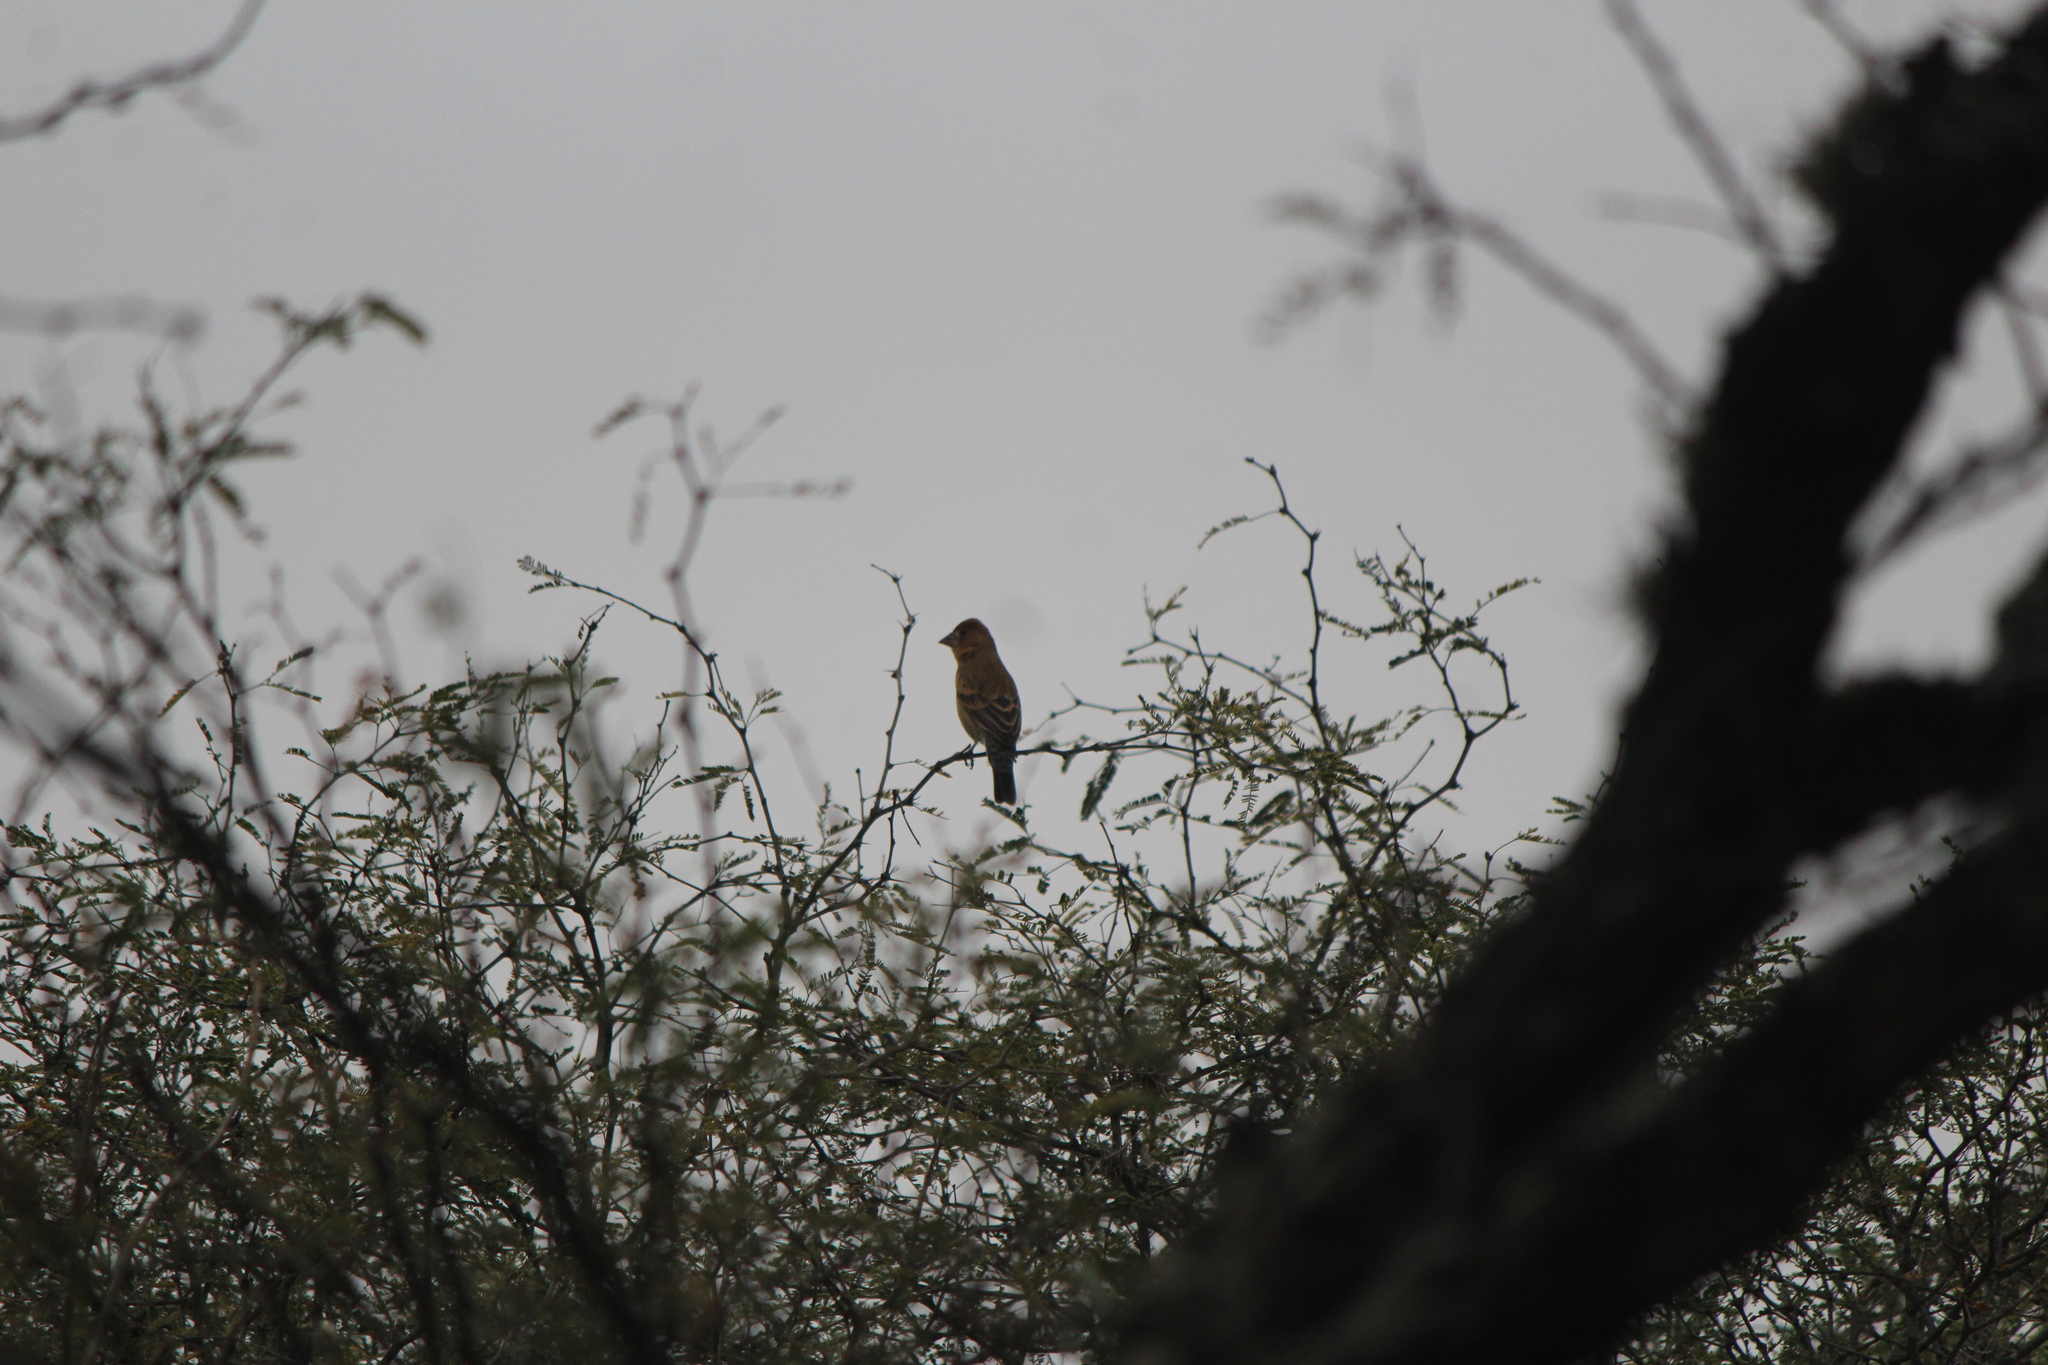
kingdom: Animalia
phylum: Chordata
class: Aves
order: Passeriformes
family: Cardinalidae
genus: Passerina
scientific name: Passerina caerulea
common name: Blue grosbeak
